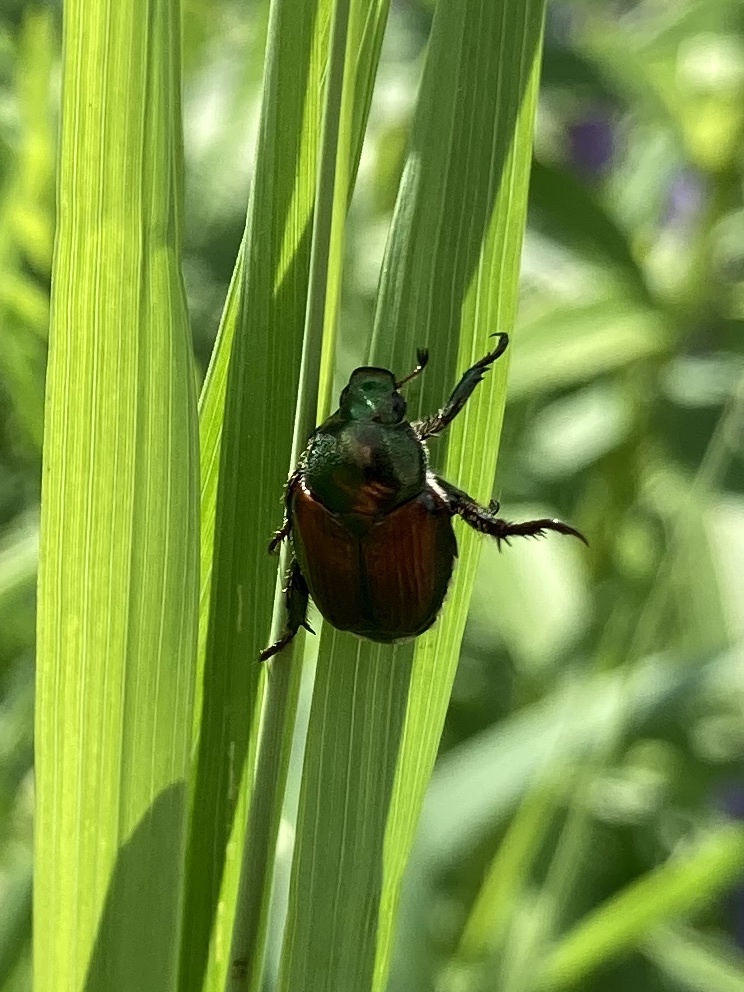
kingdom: Animalia
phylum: Arthropoda
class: Insecta
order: Coleoptera
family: Scarabaeidae
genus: Popillia
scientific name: Popillia japonica
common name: Japanese beetle
